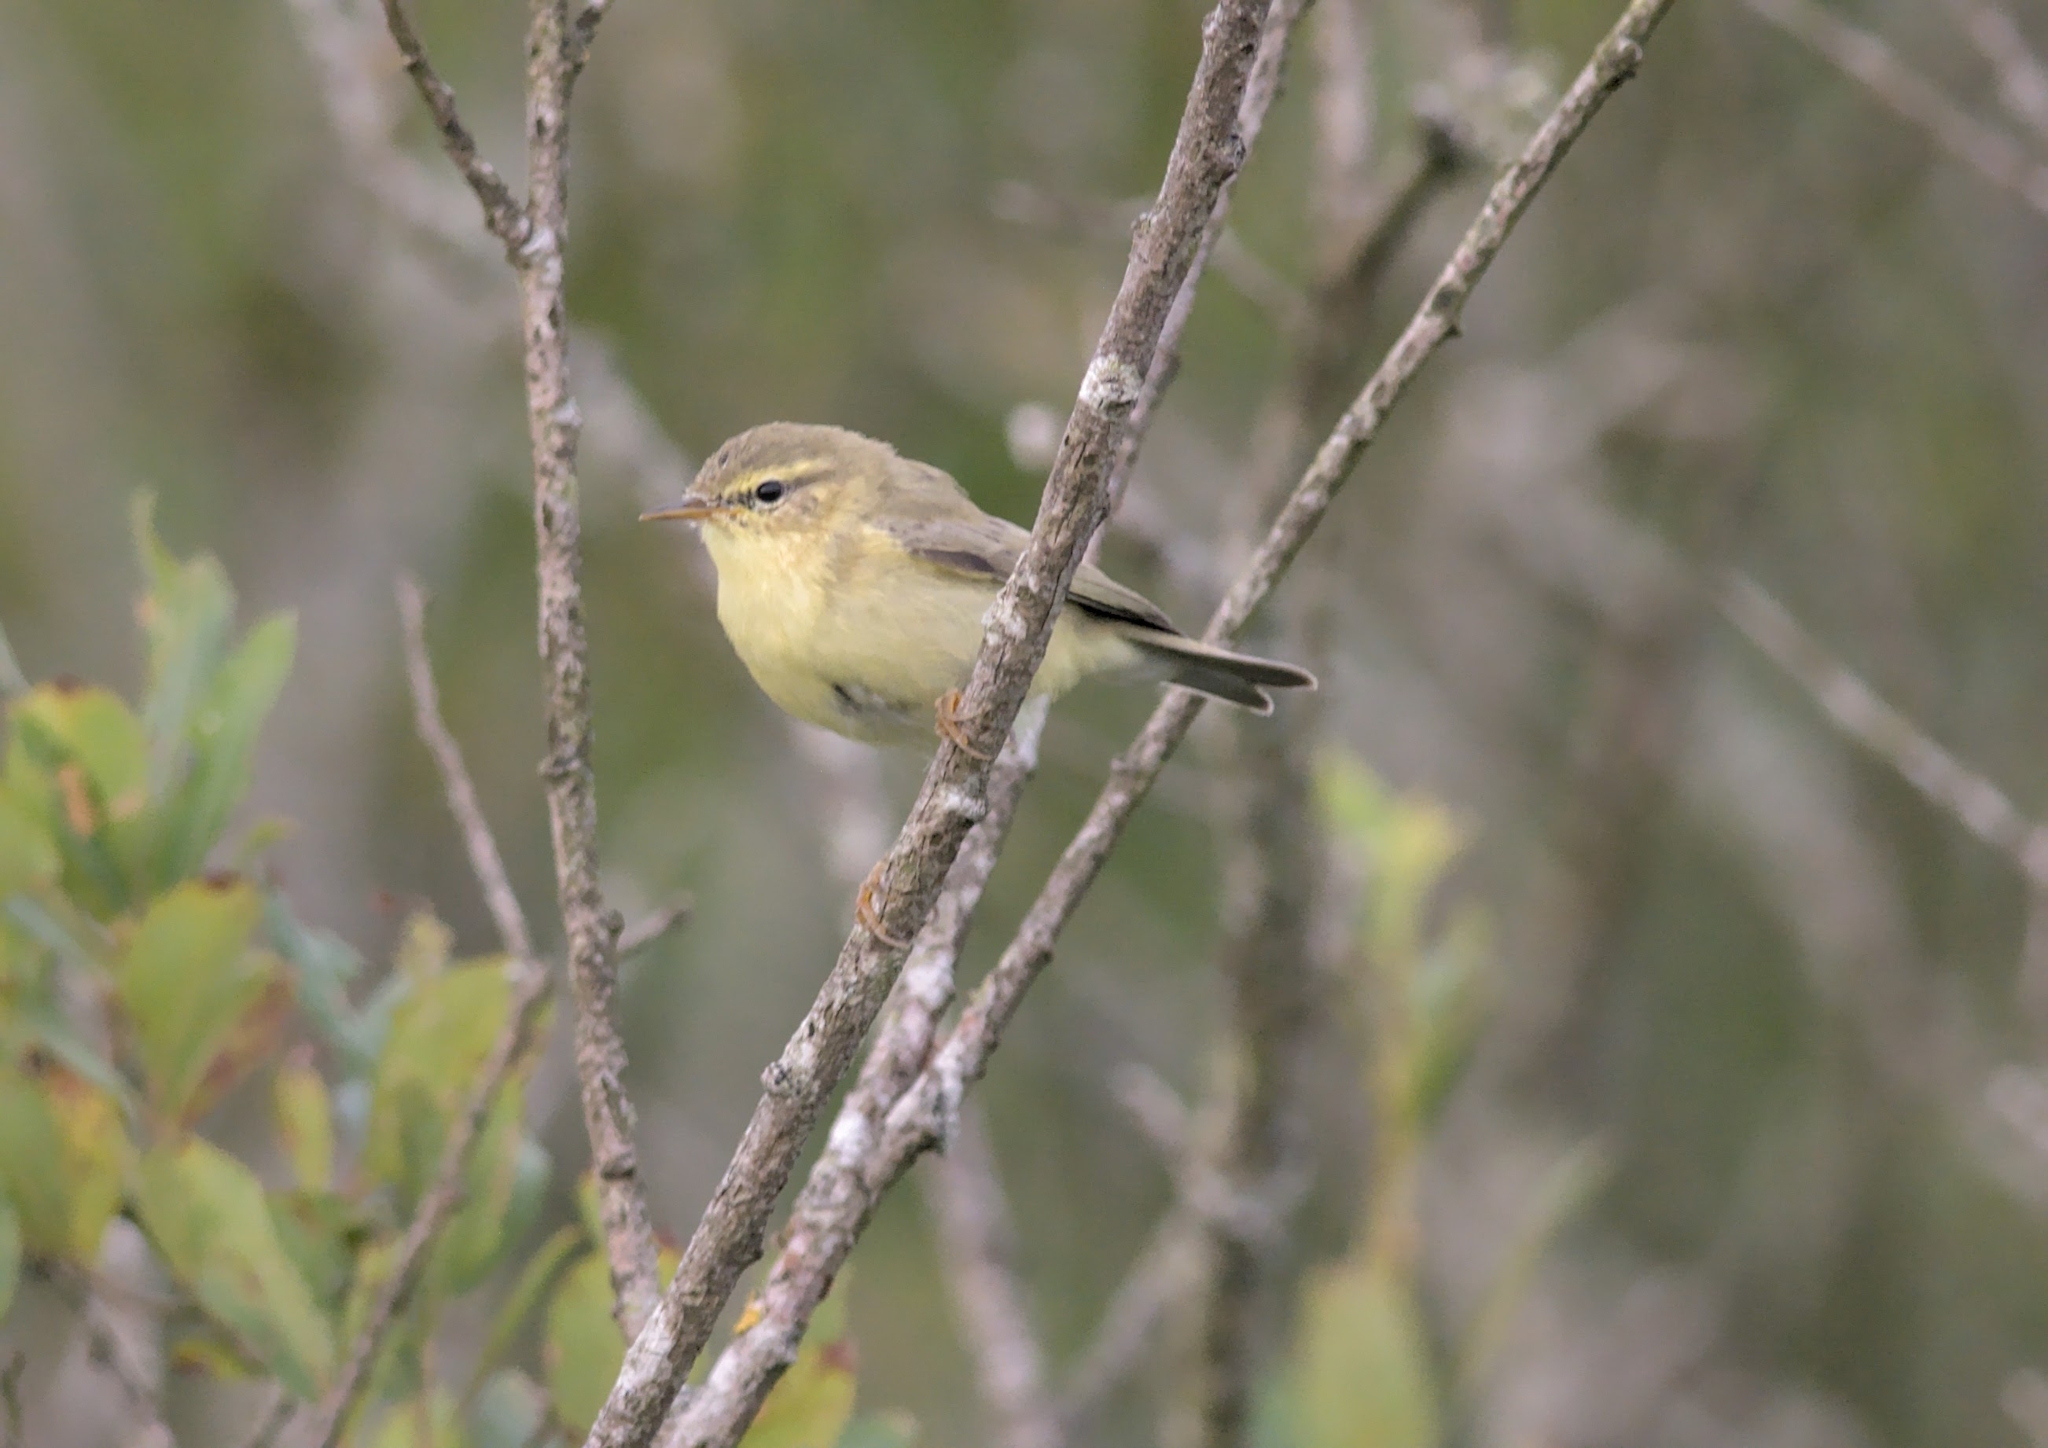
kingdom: Animalia
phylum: Chordata
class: Aves
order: Passeriformes
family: Phylloscopidae
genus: Phylloscopus
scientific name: Phylloscopus trochilus
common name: Willow warbler
